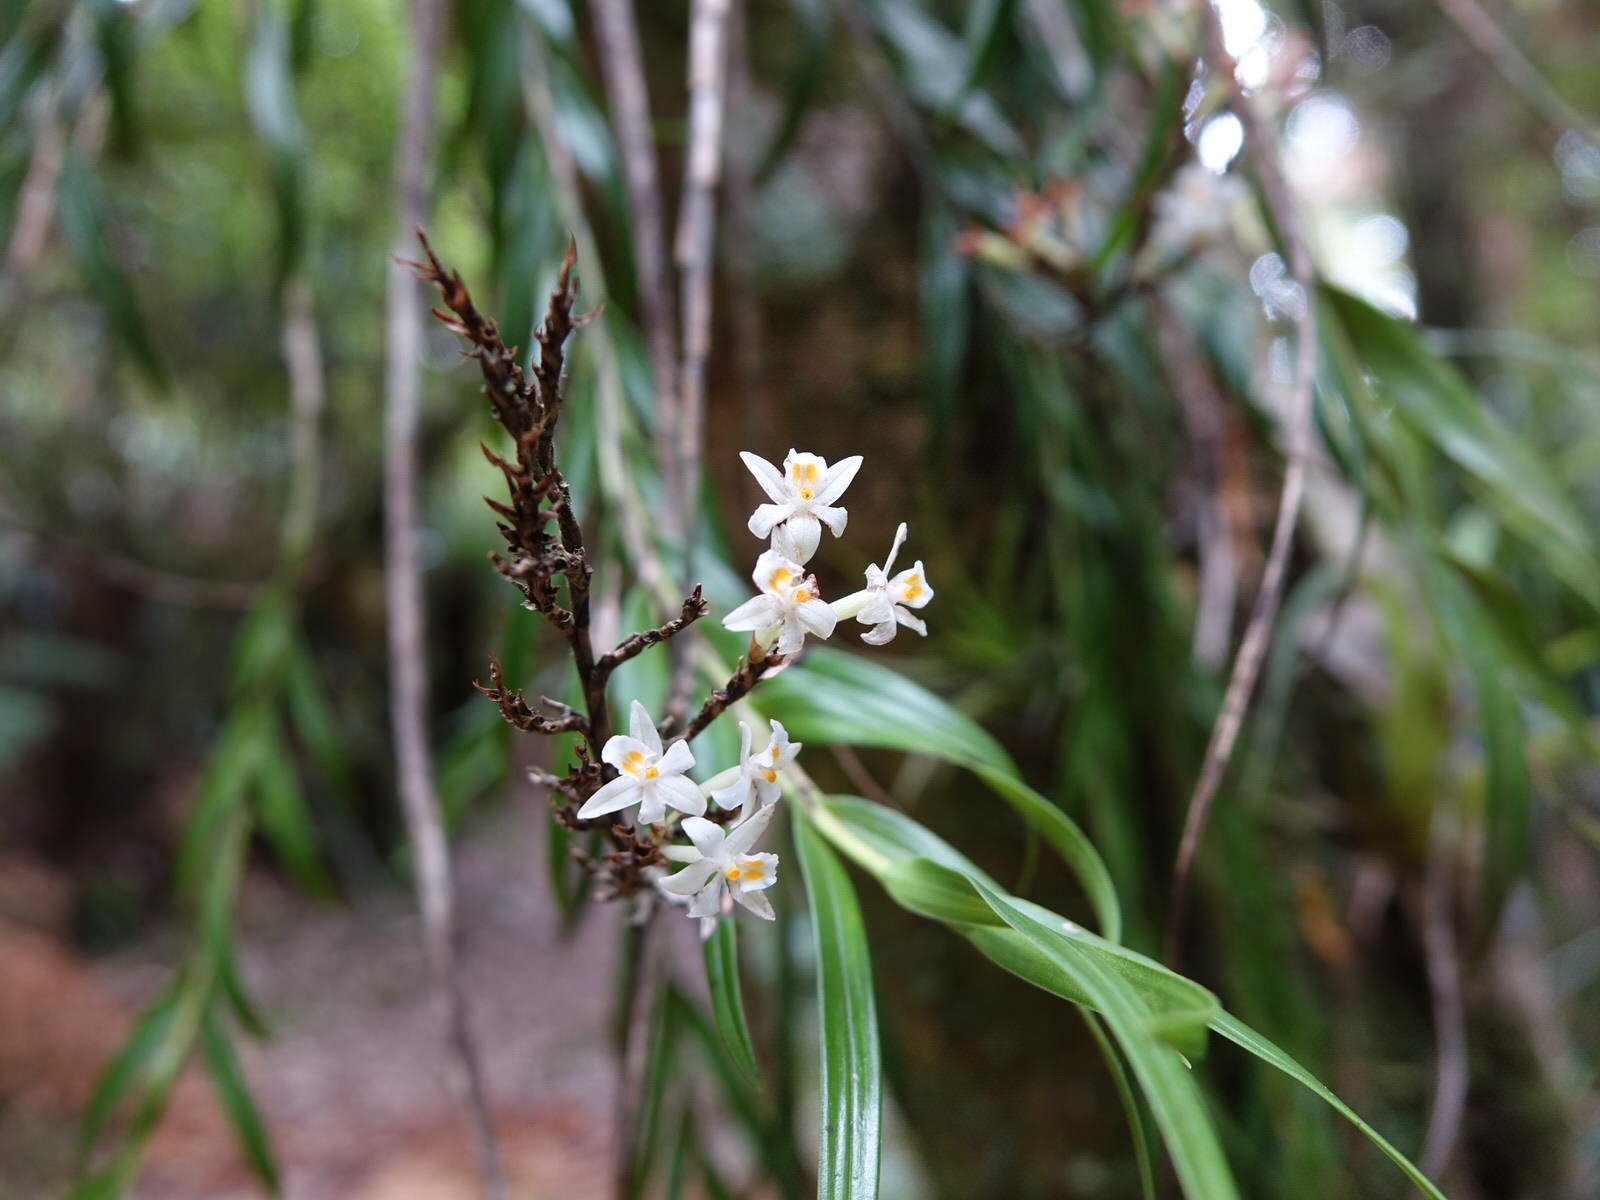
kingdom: Plantae
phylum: Tracheophyta
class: Liliopsida
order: Asparagales
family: Orchidaceae
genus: Earina
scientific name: Earina autumnalis
